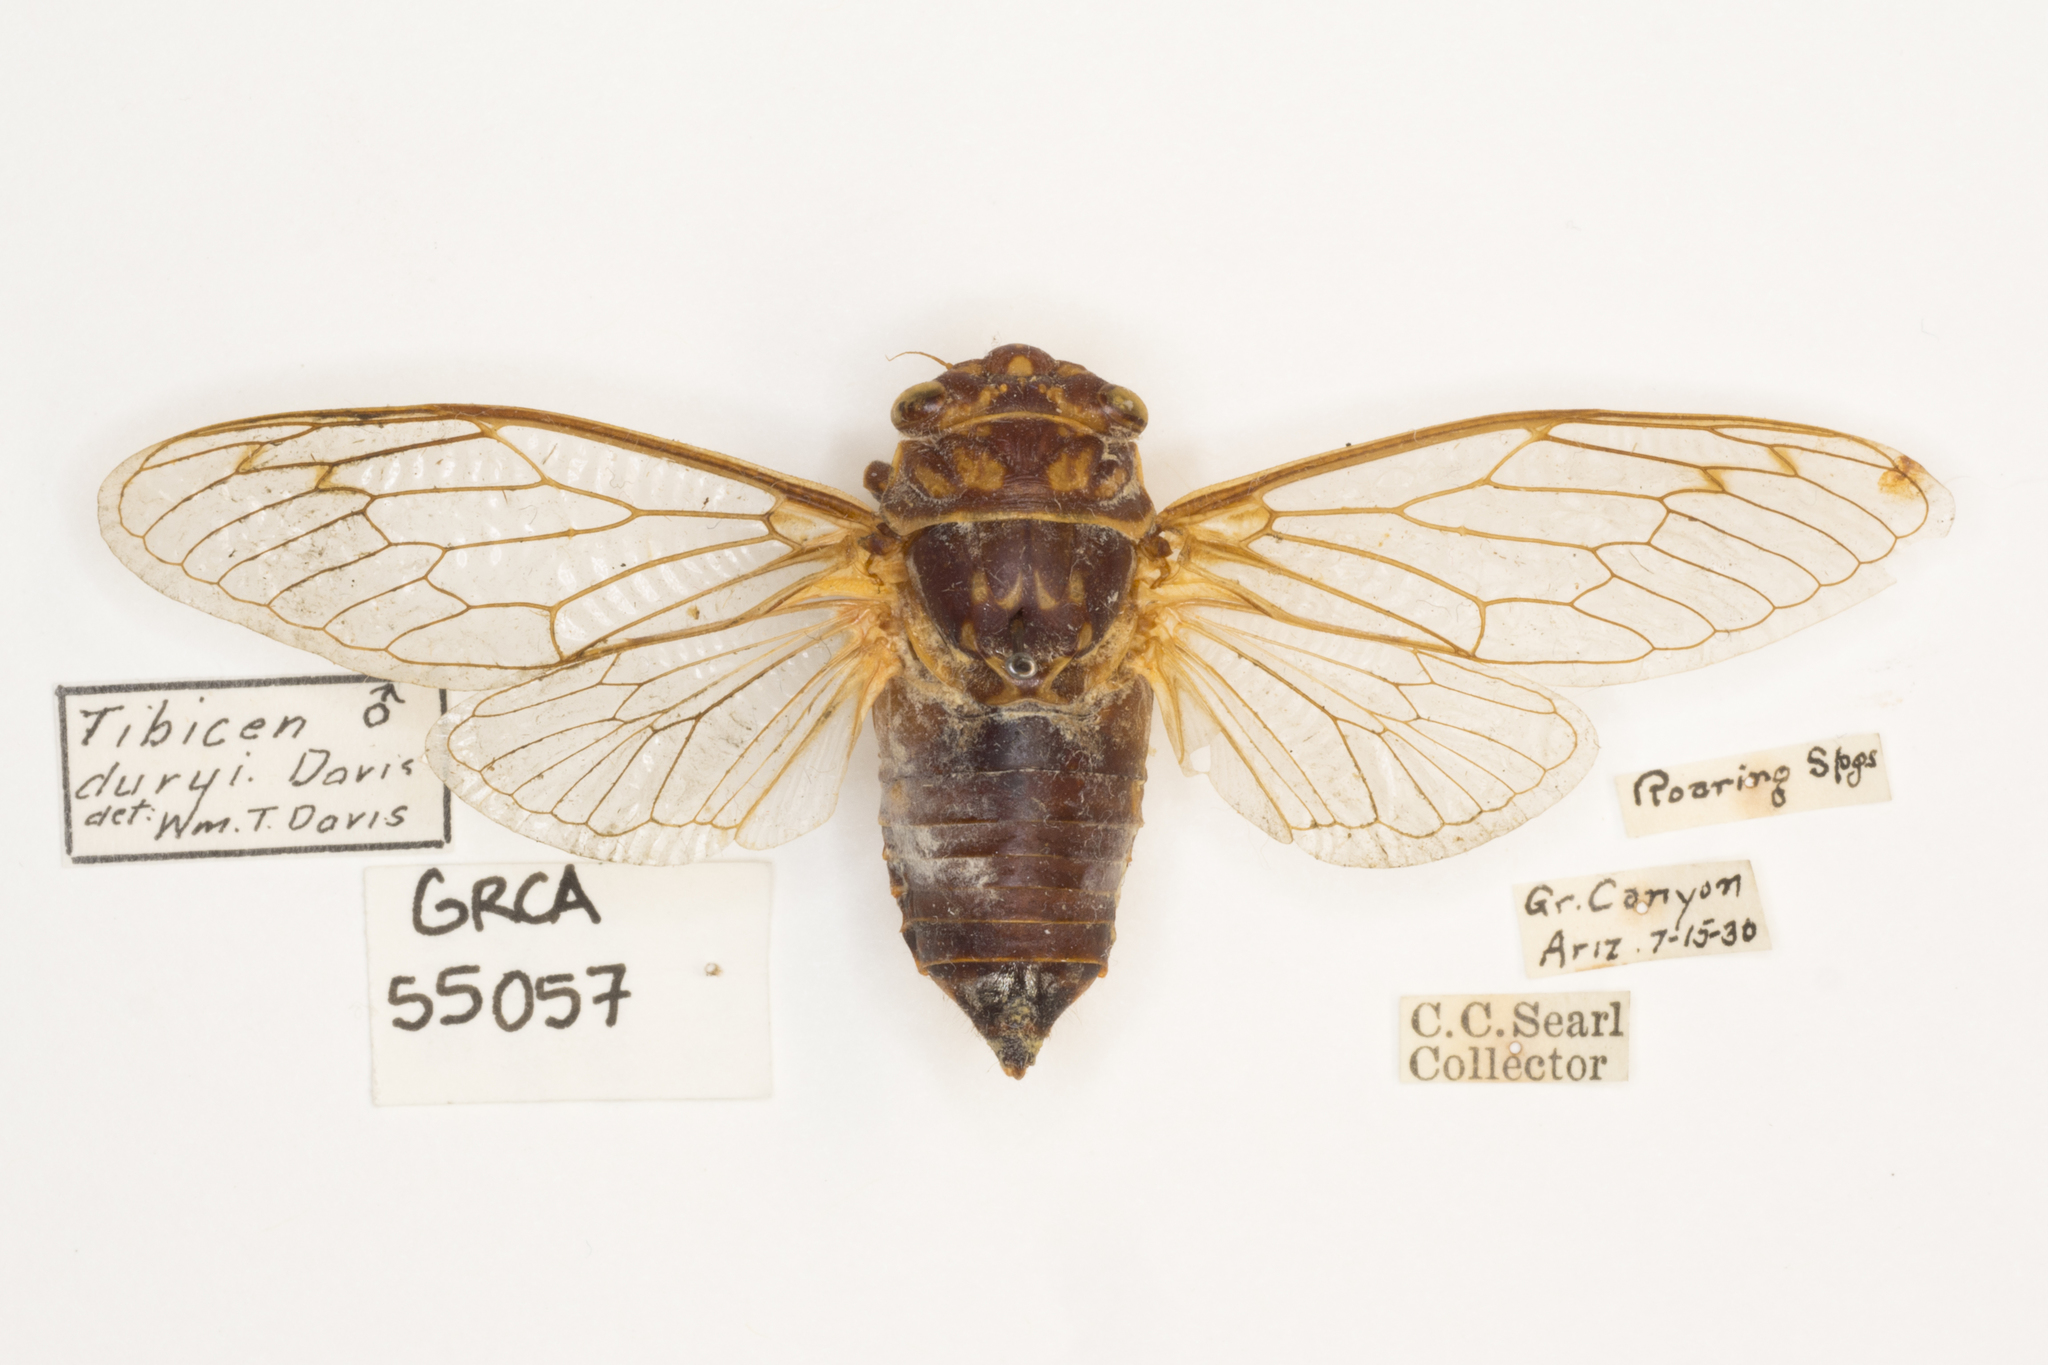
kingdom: Animalia
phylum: Arthropoda
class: Insecta
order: Hemiptera
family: Cicadidae
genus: Hadoa
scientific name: Hadoa duryi
